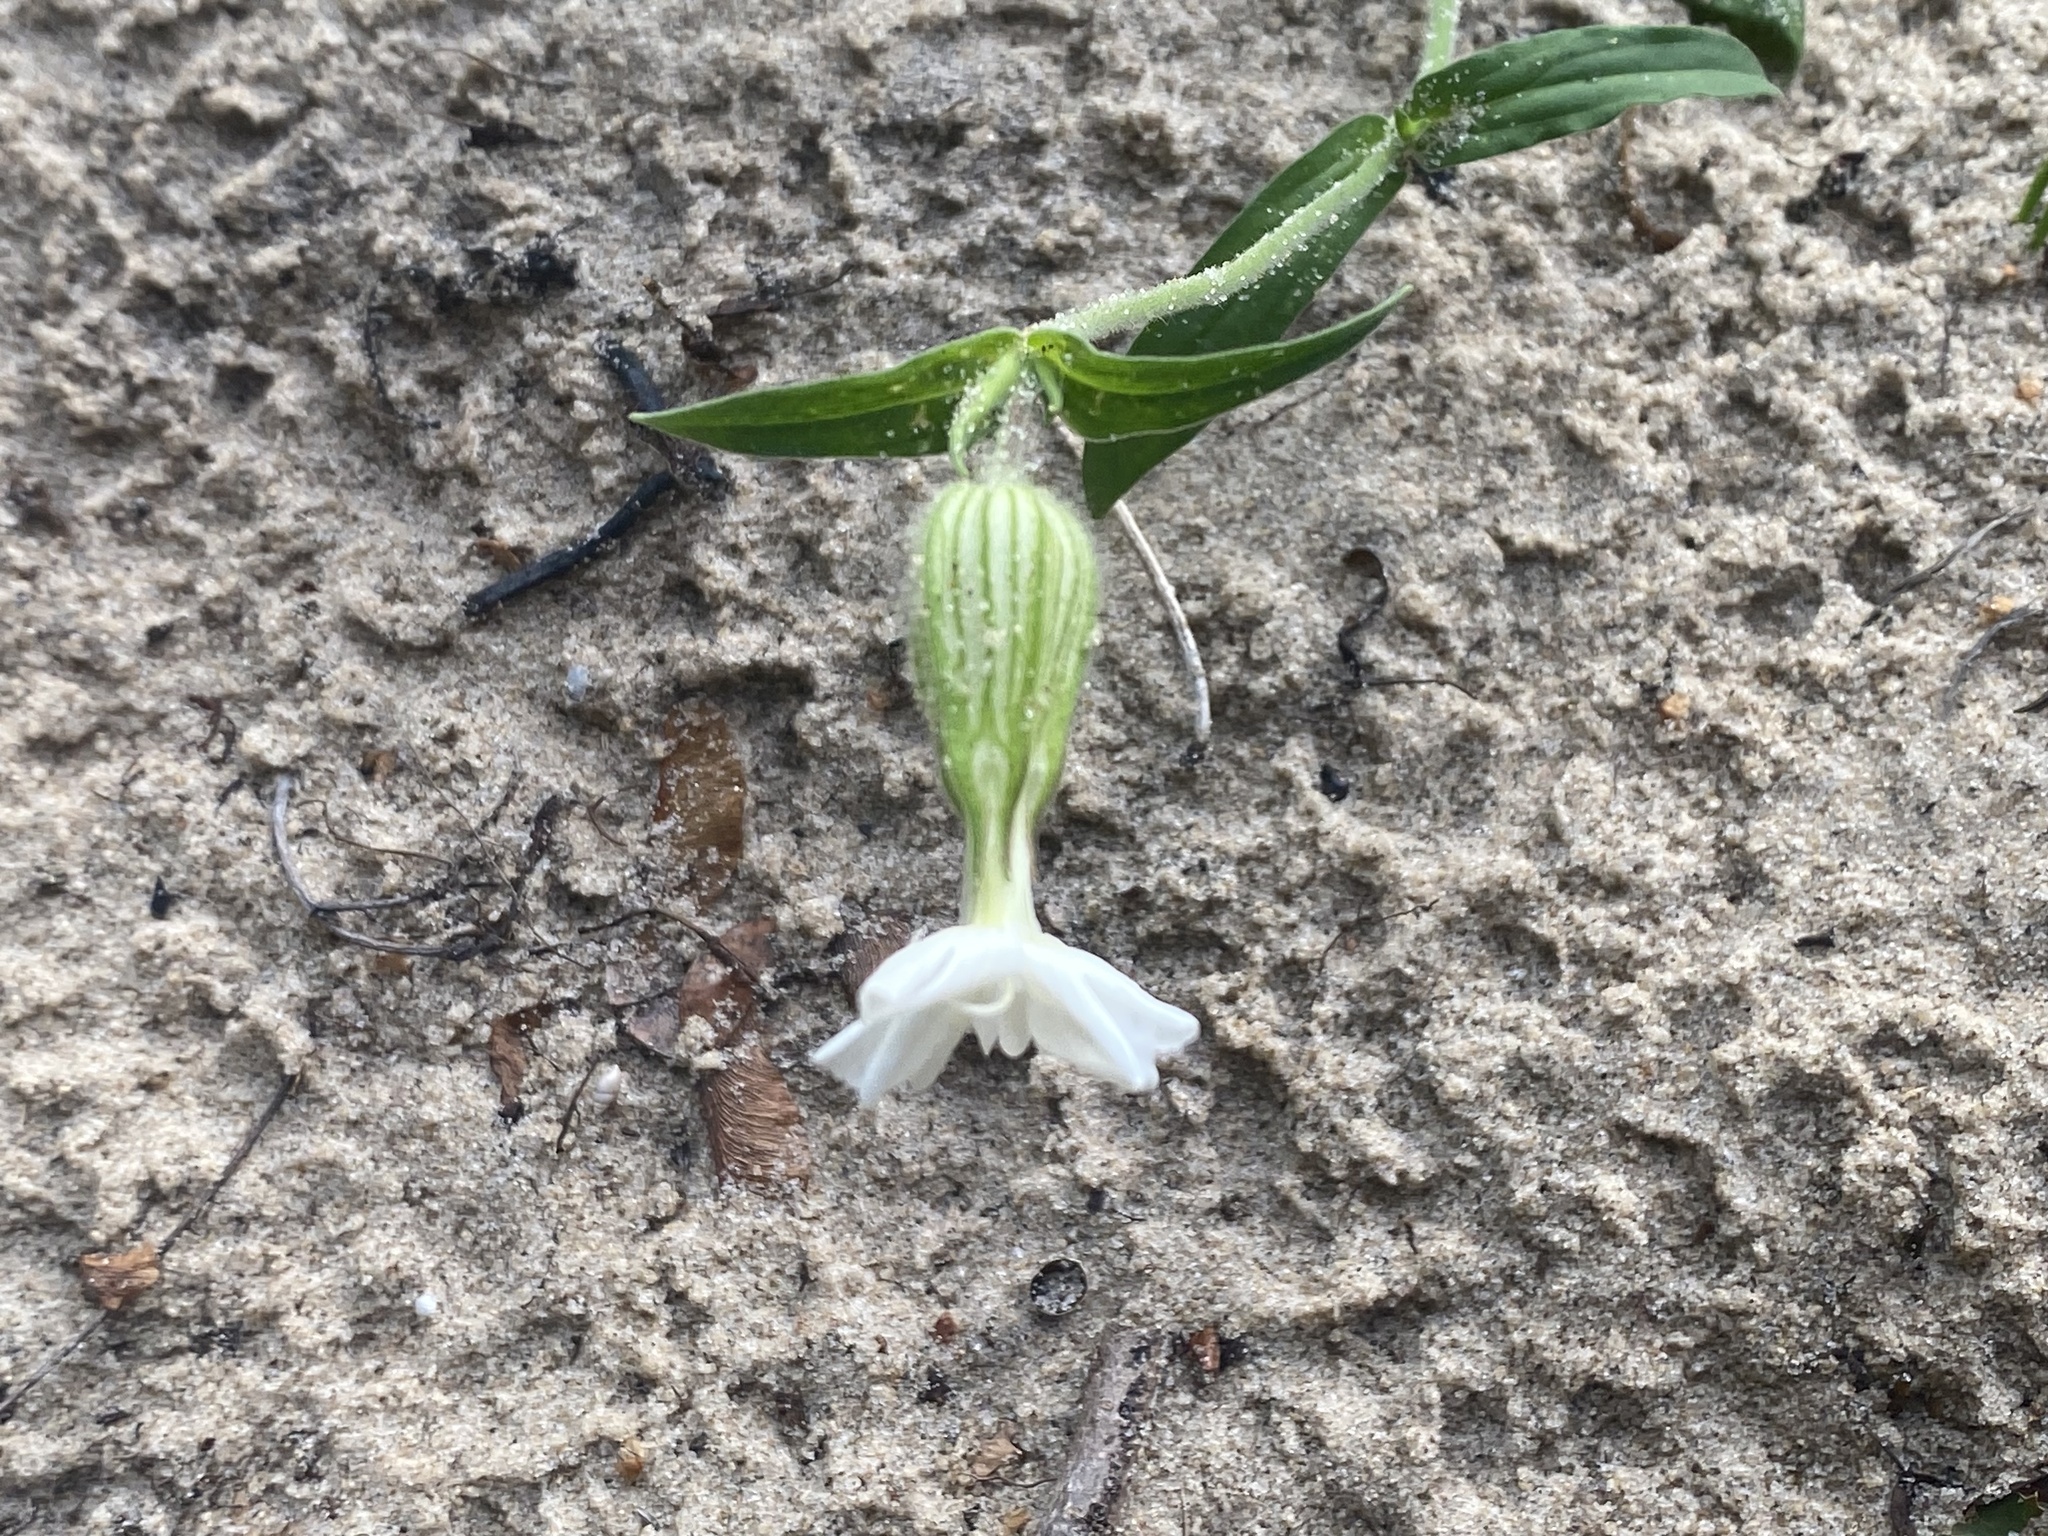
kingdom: Plantae
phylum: Tracheophyta
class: Magnoliopsida
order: Caryophyllales
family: Caryophyllaceae
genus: Silene
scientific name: Silene latifolia
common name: White campion
